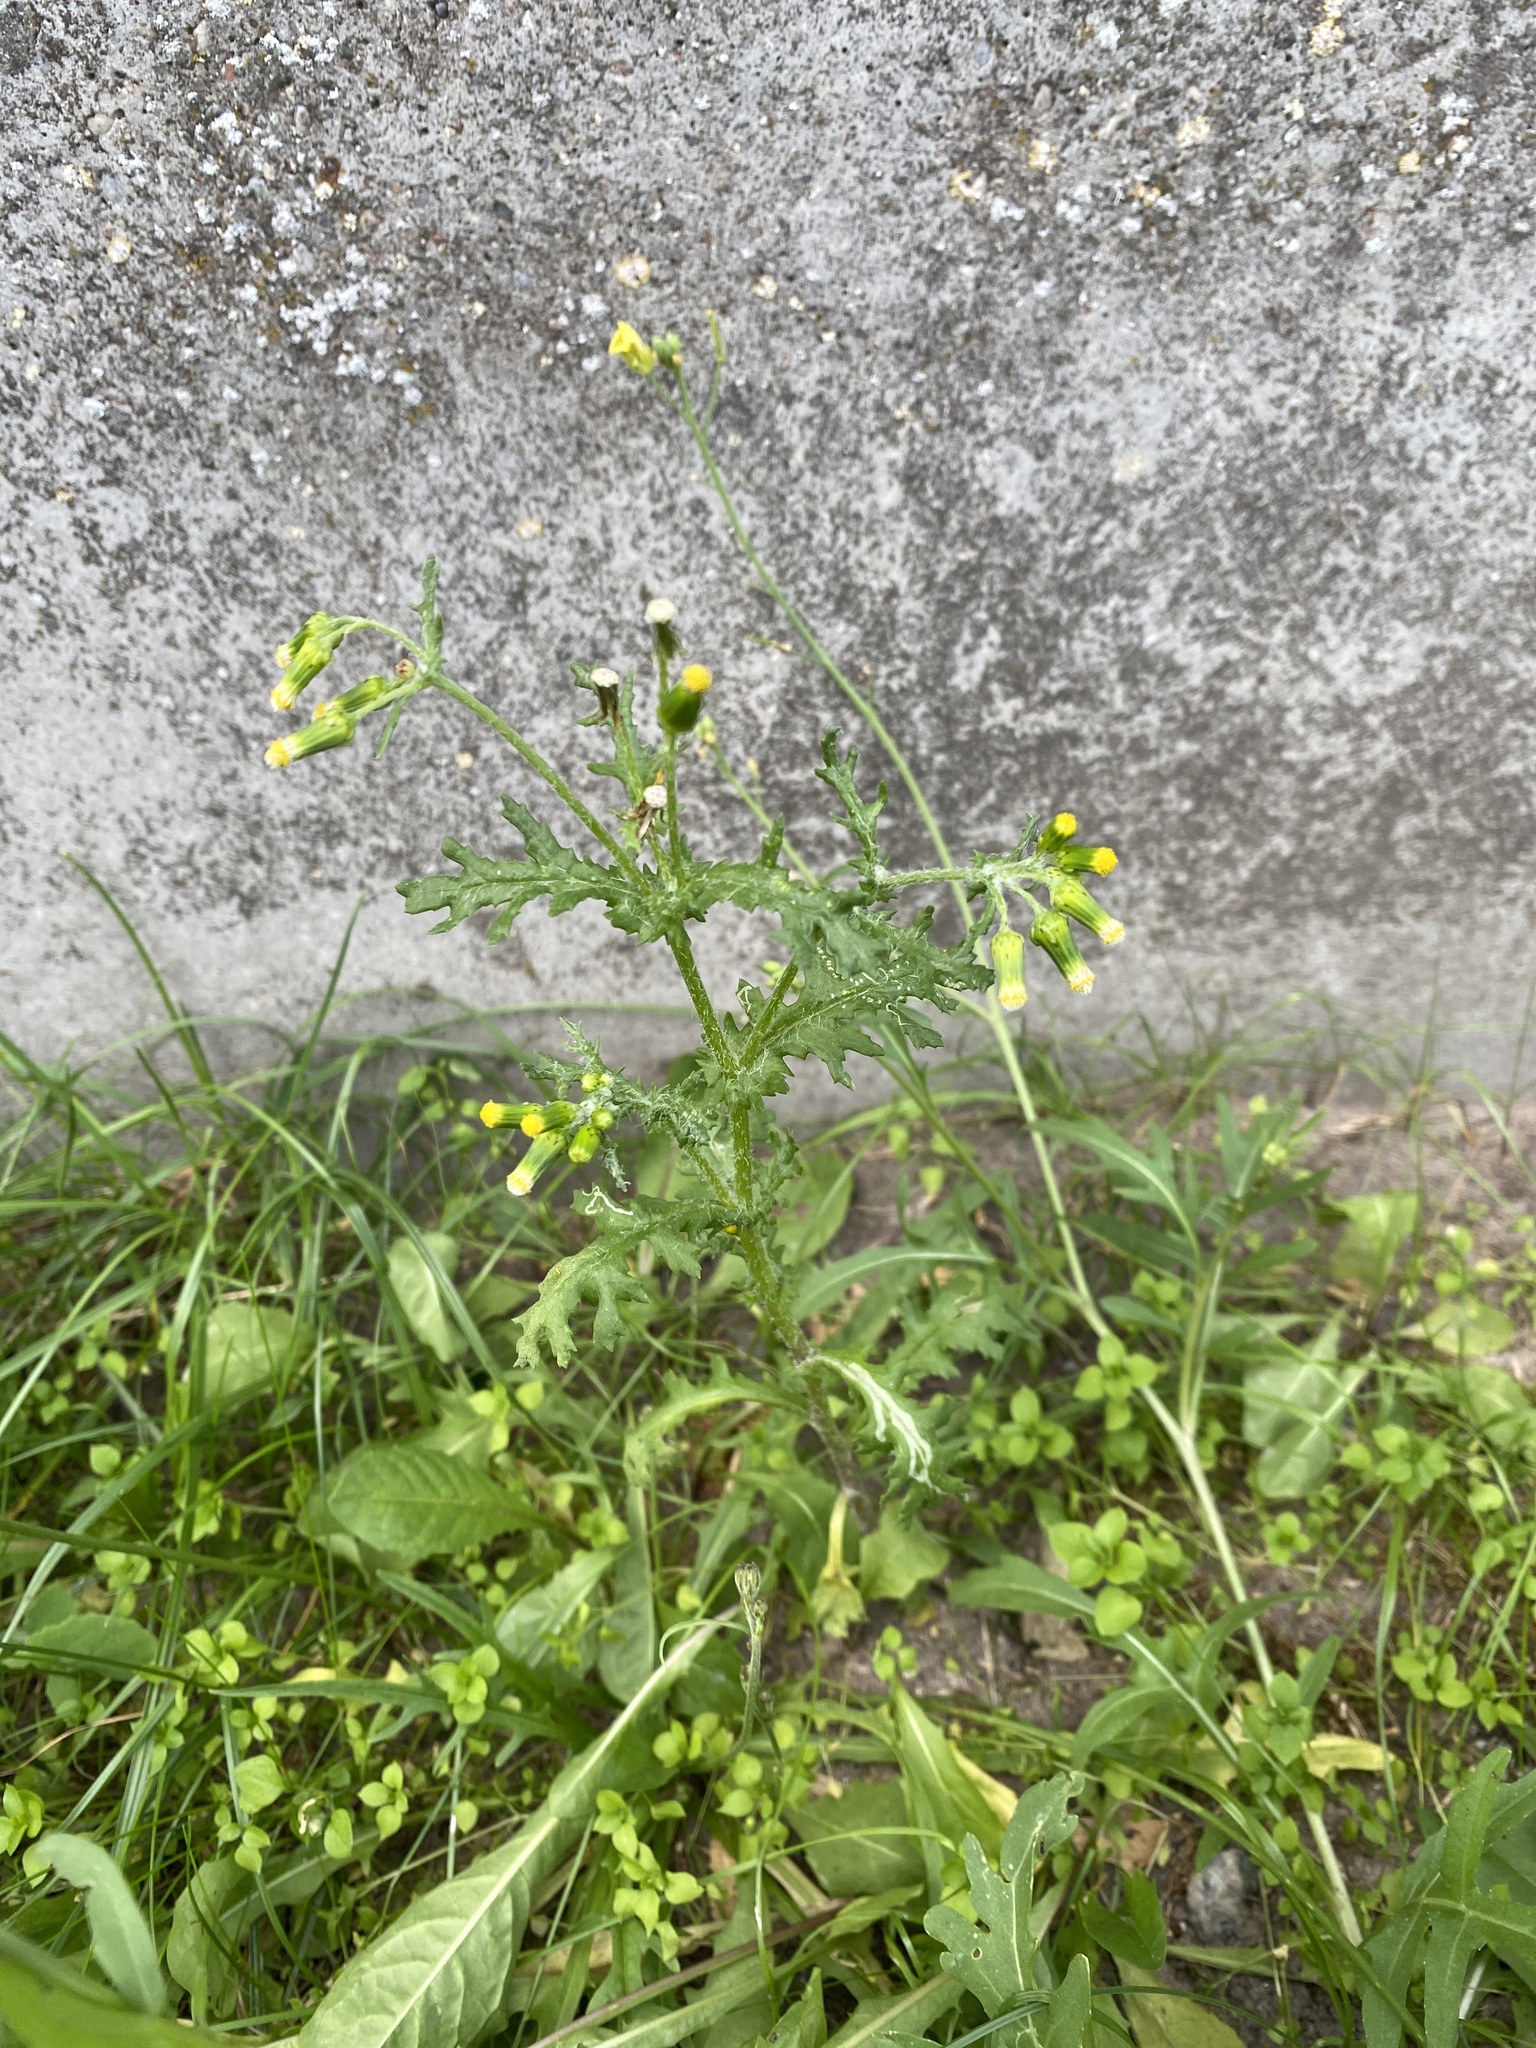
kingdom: Plantae
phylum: Tracheophyta
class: Magnoliopsida
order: Asterales
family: Asteraceae
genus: Senecio
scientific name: Senecio vulgaris
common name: Old-man-in-the-spring
